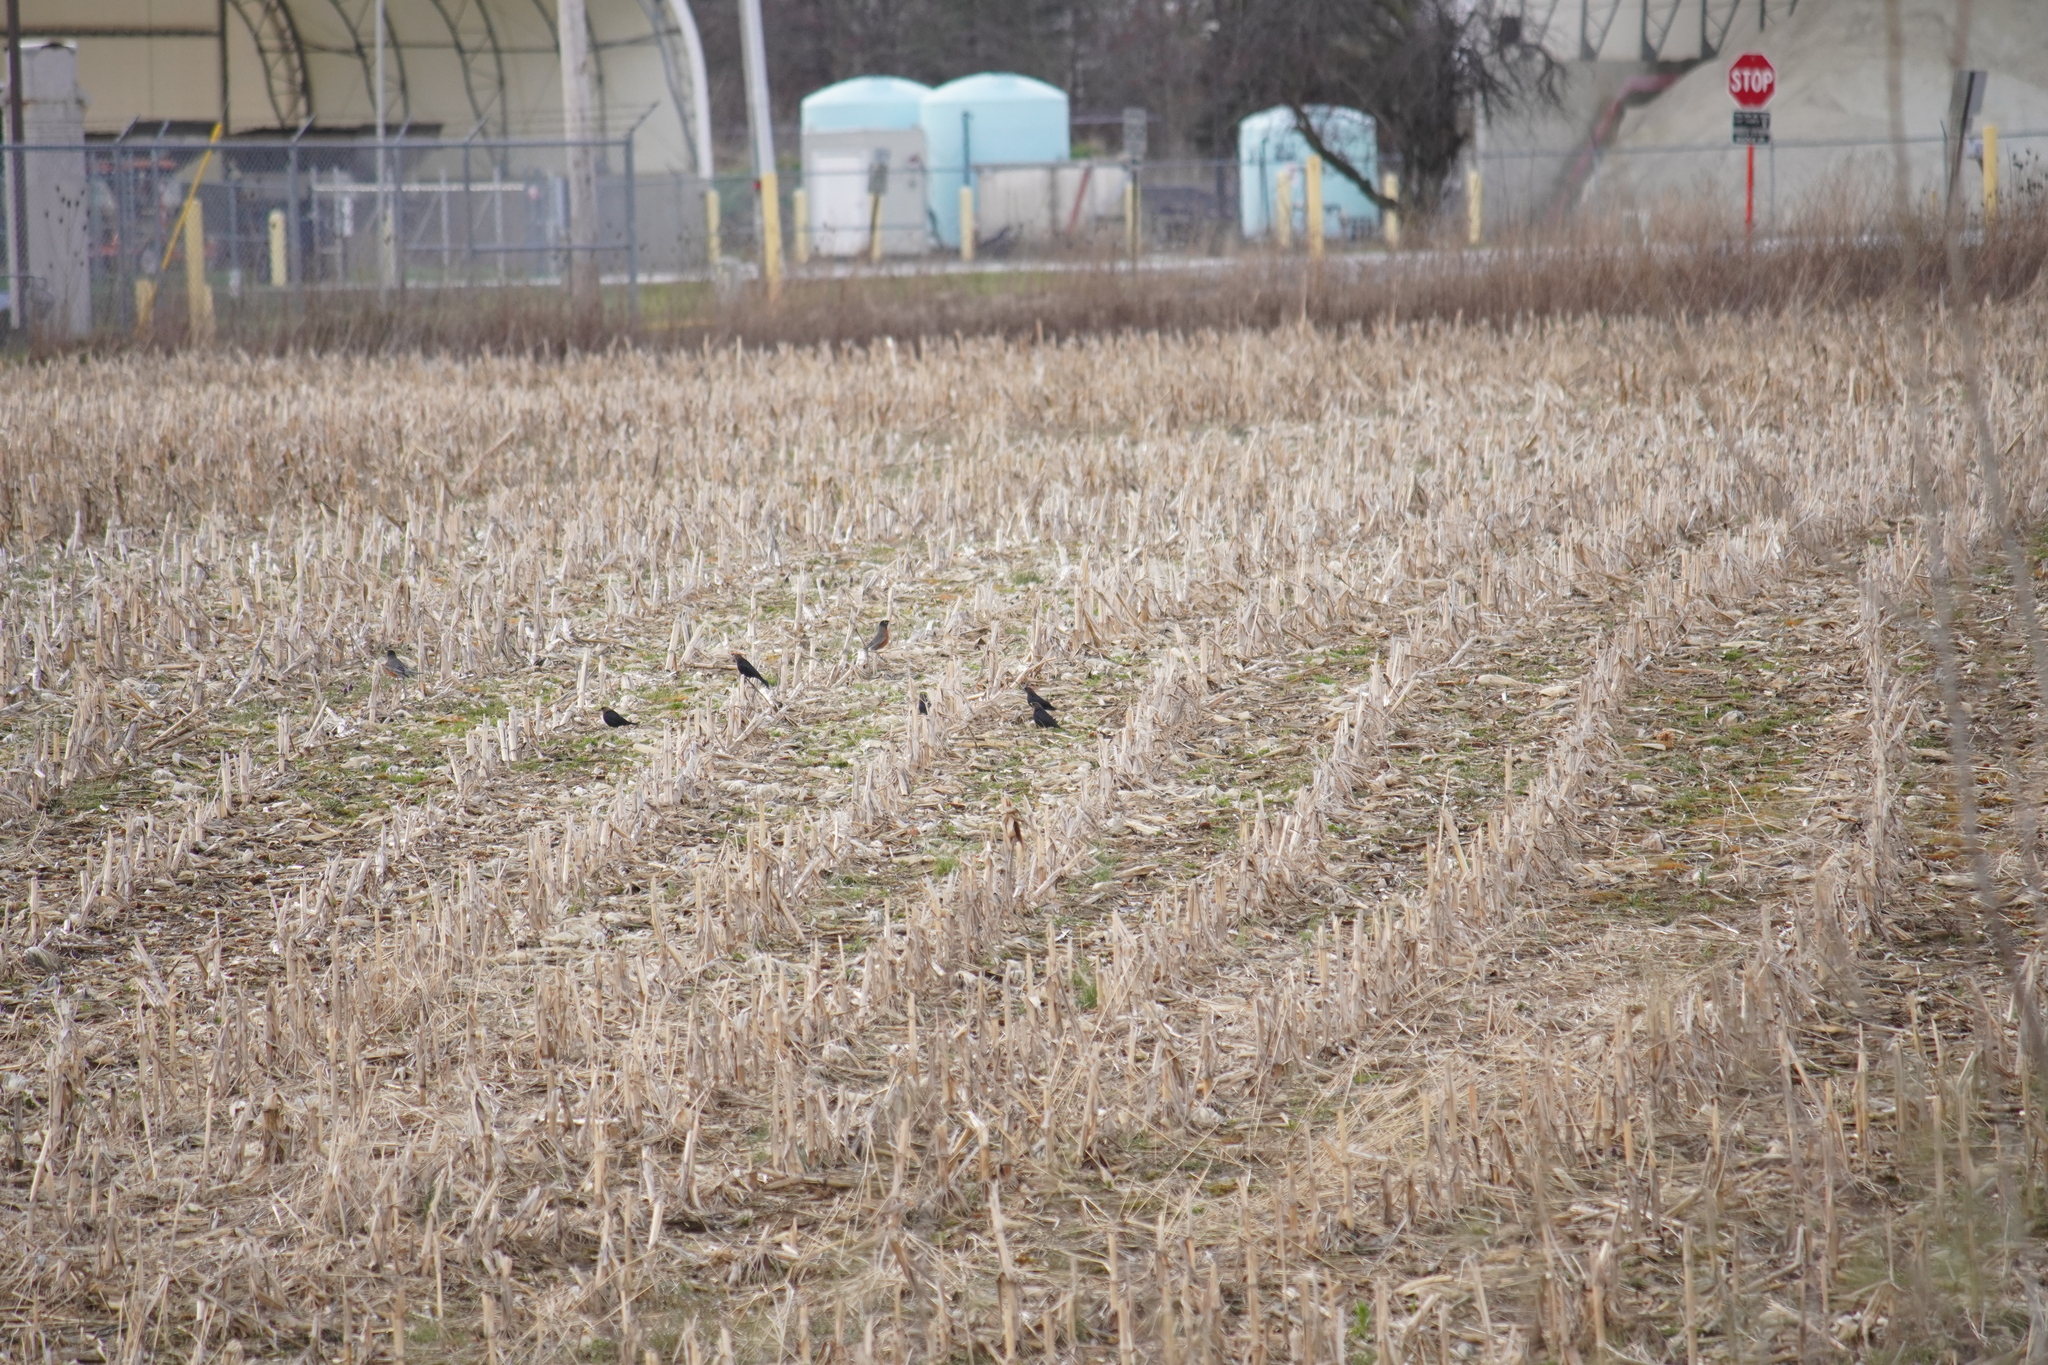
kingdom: Animalia
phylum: Chordata
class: Aves
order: Passeriformes
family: Icteridae
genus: Molothrus
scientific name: Molothrus ater
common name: Brown-headed cowbird
